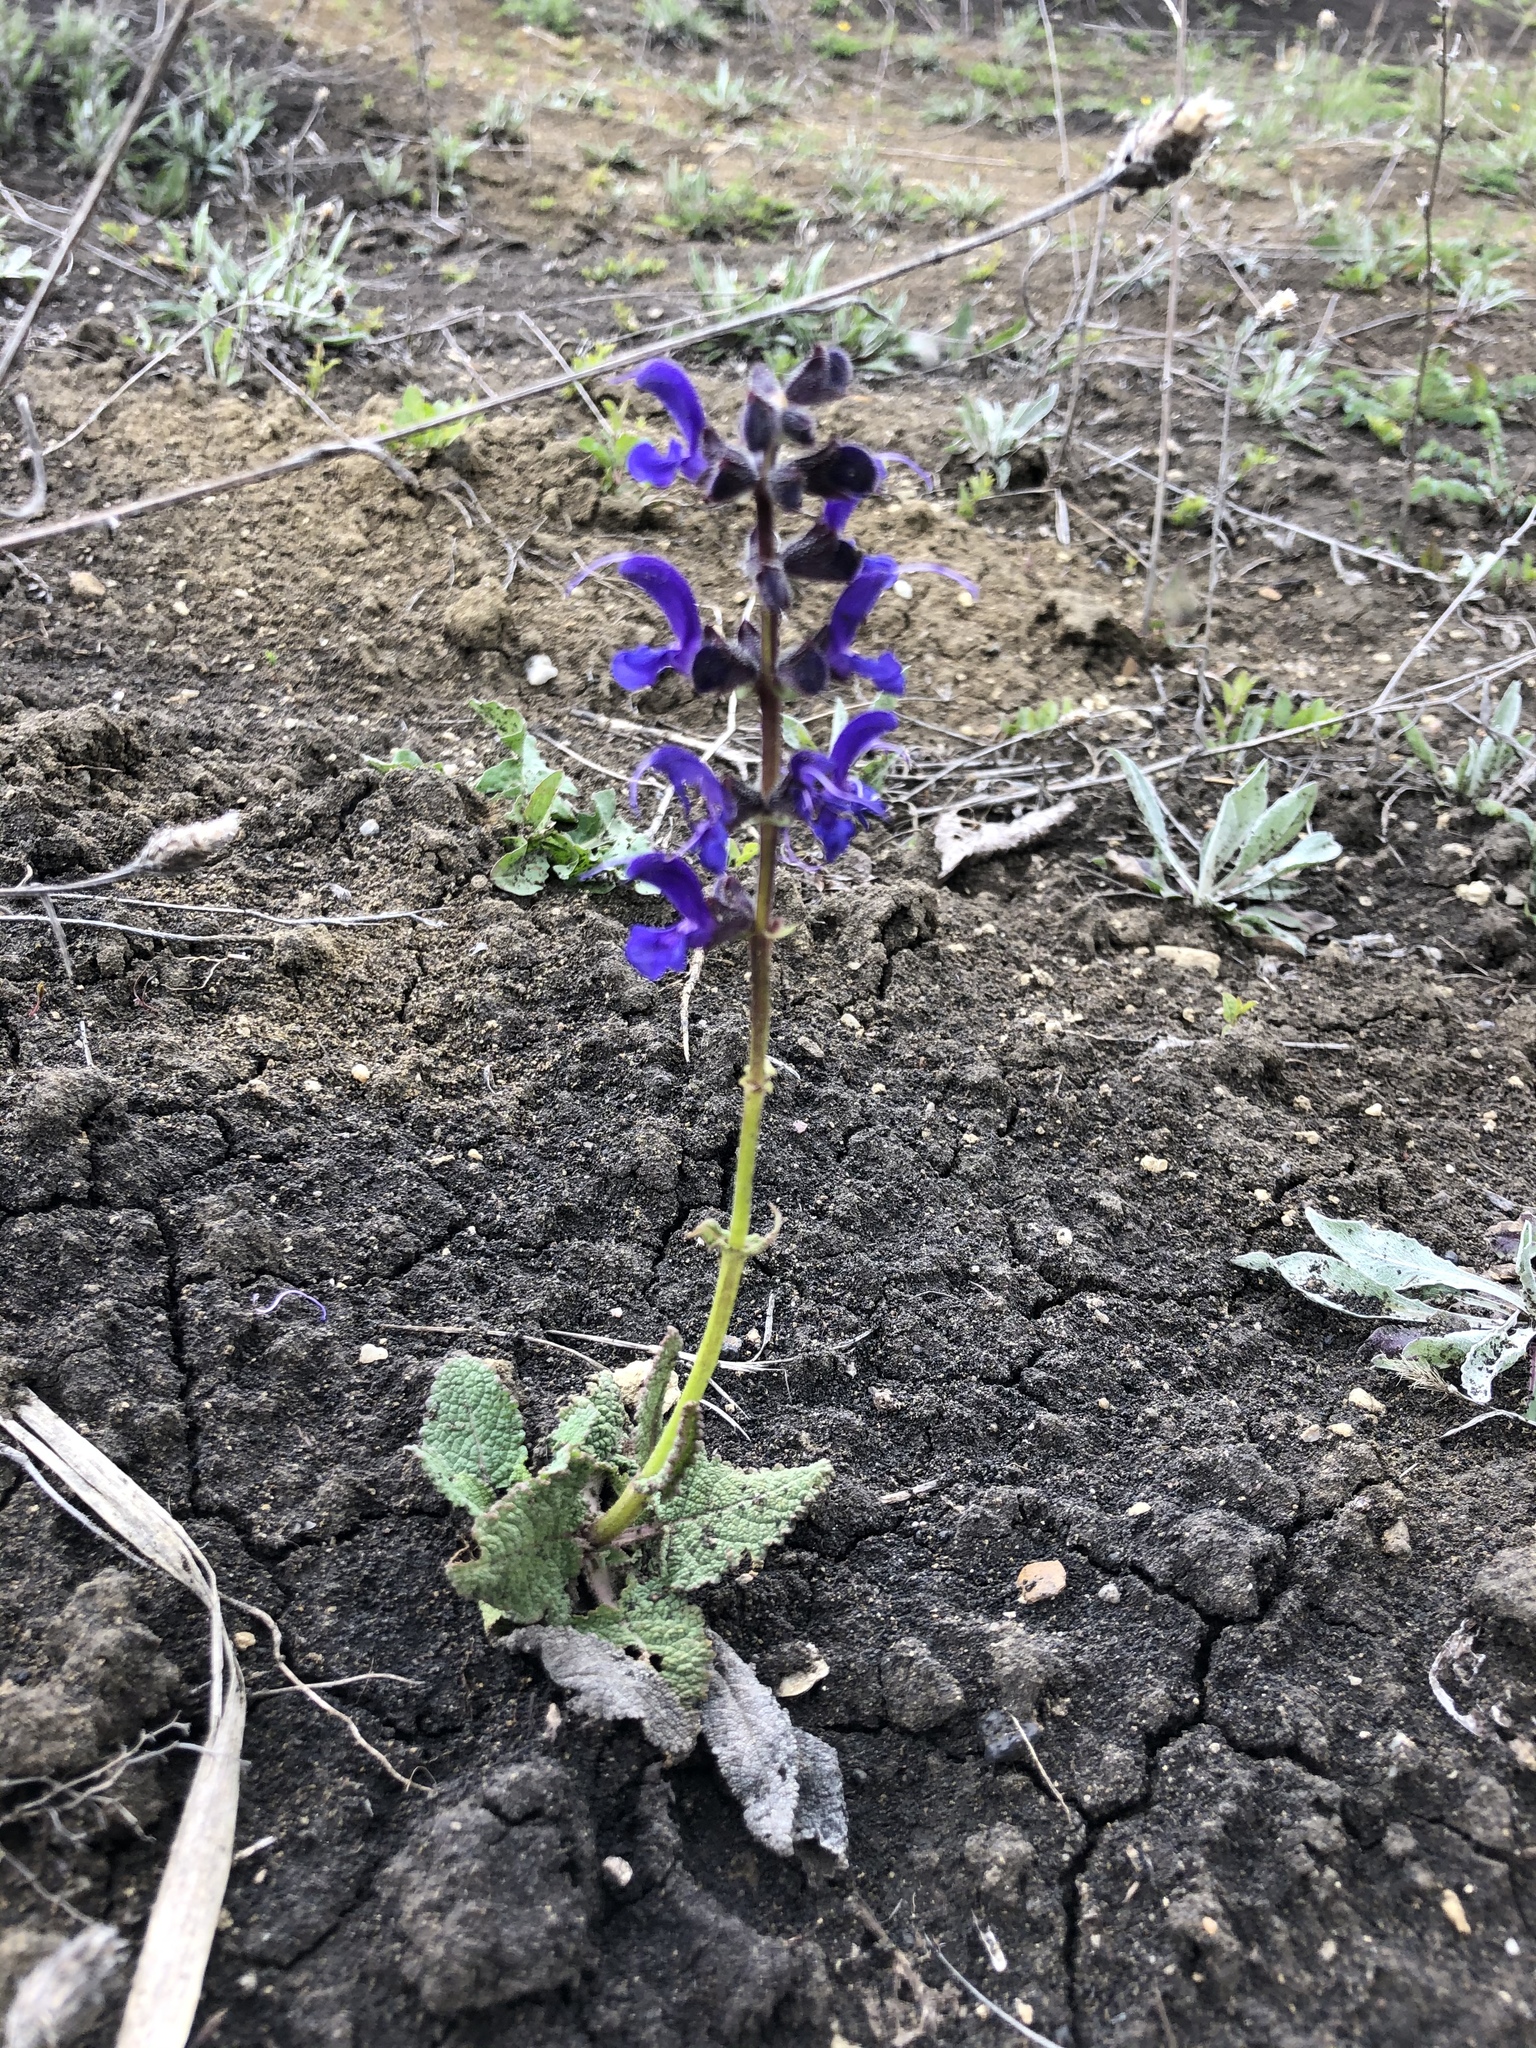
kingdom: Plantae
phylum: Tracheophyta
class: Magnoliopsida
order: Lamiales
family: Lamiaceae
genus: Salvia
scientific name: Salvia pratensis
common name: Meadow sage
